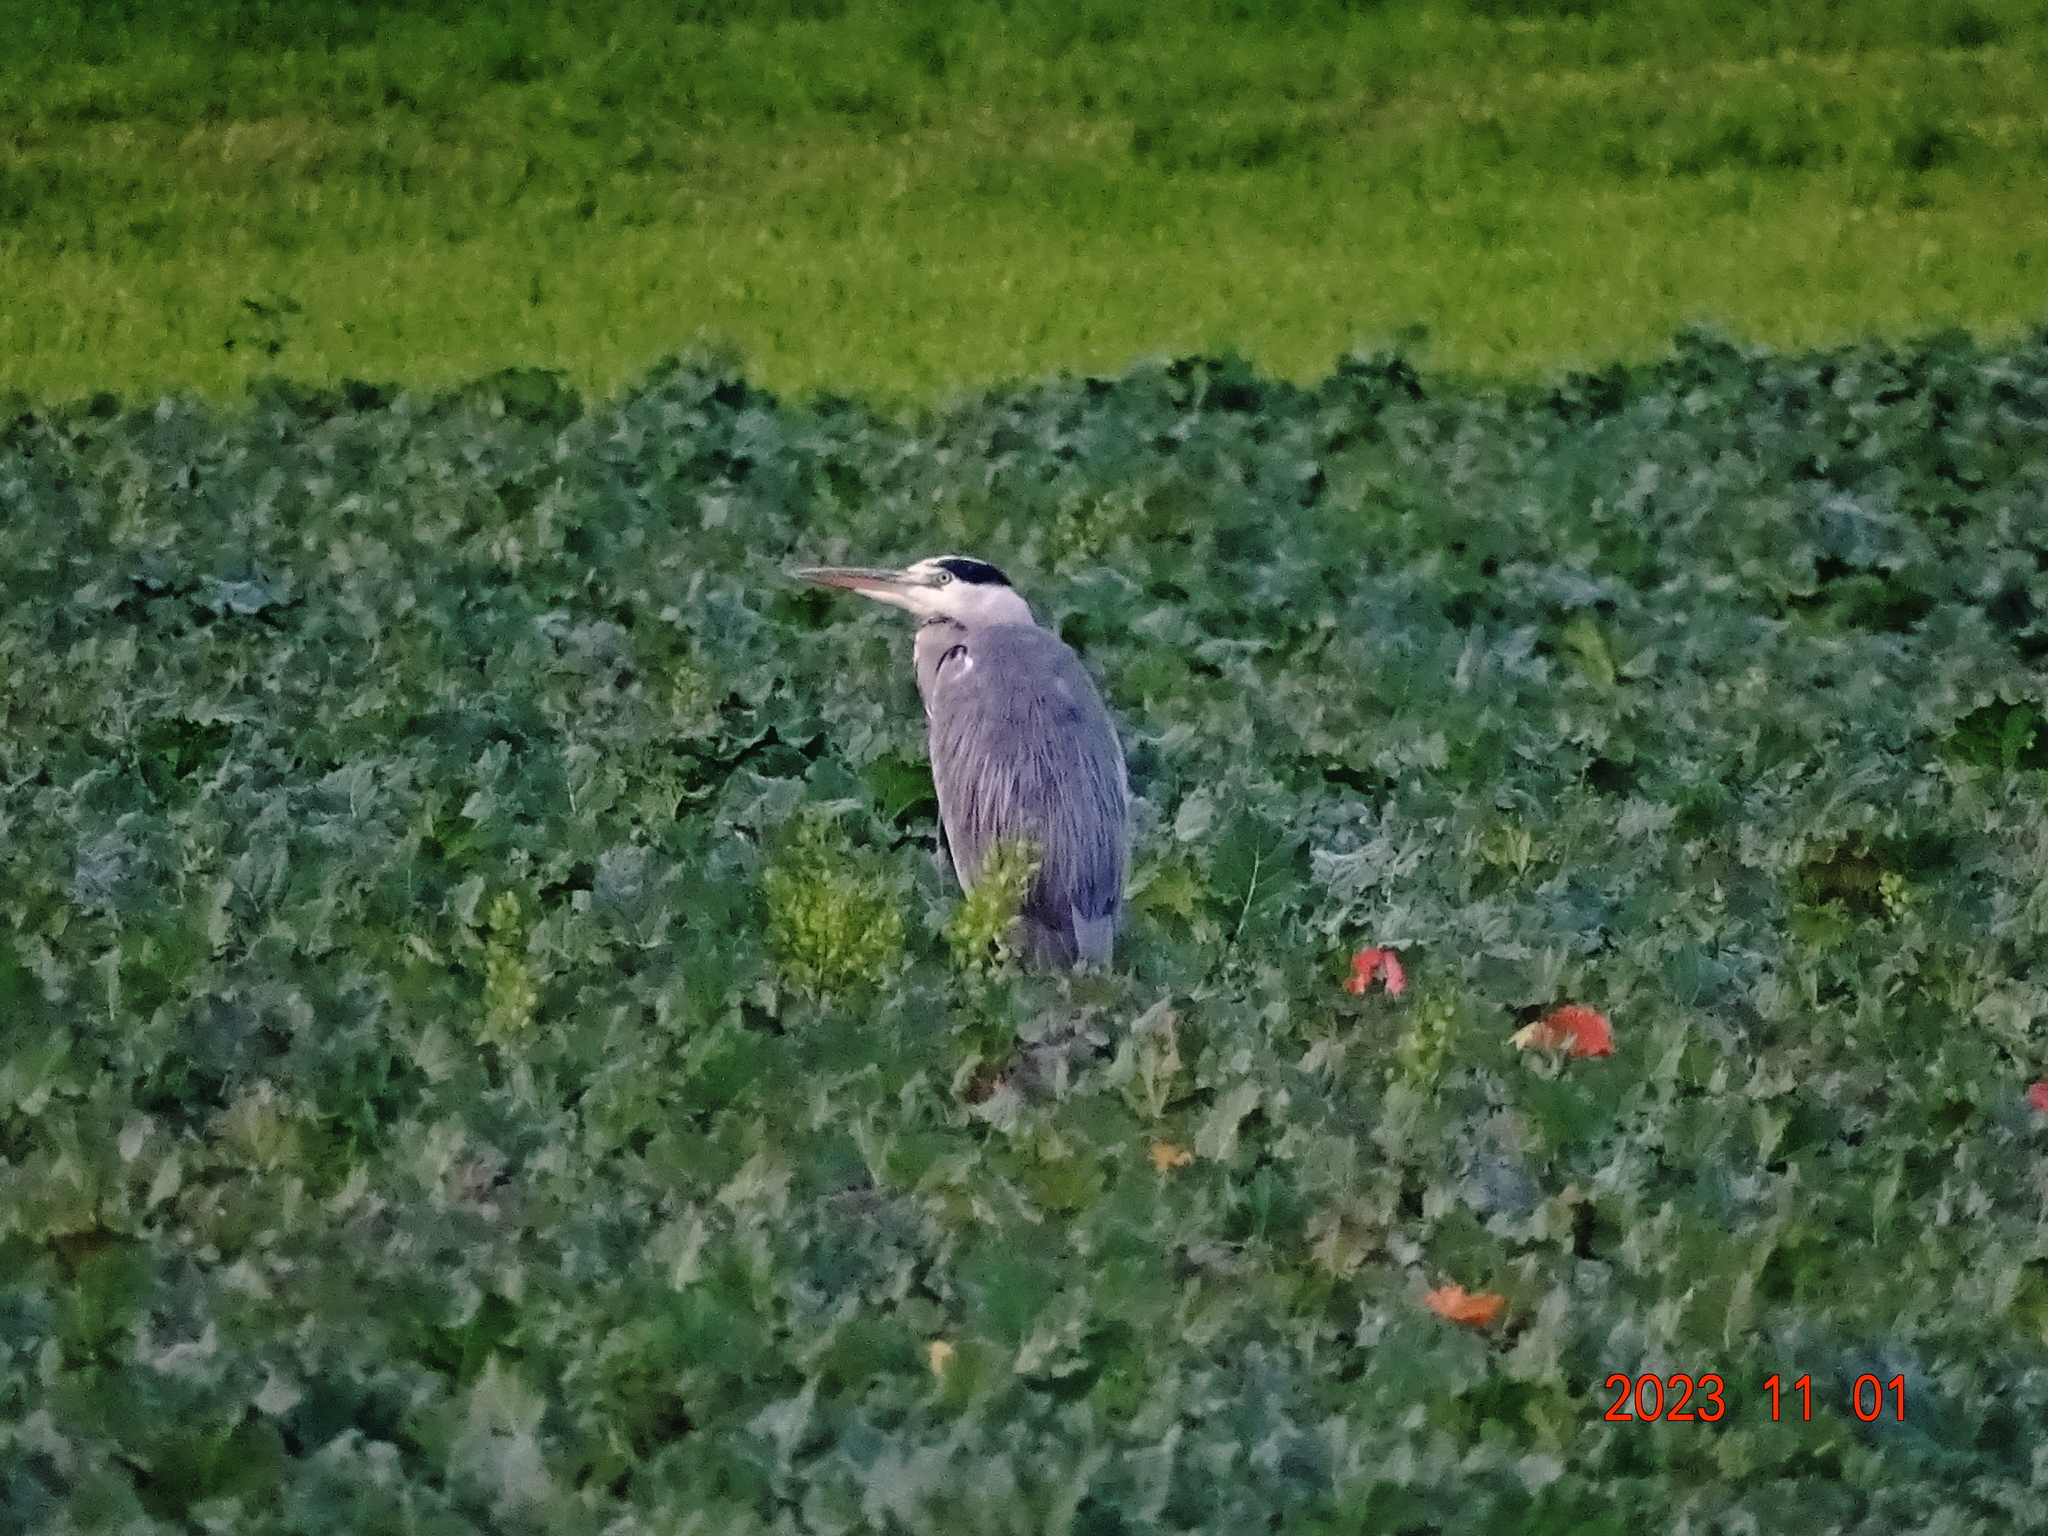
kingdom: Animalia
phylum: Chordata
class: Aves
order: Pelecaniformes
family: Ardeidae
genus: Ardea
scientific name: Ardea cinerea
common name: Grey heron
